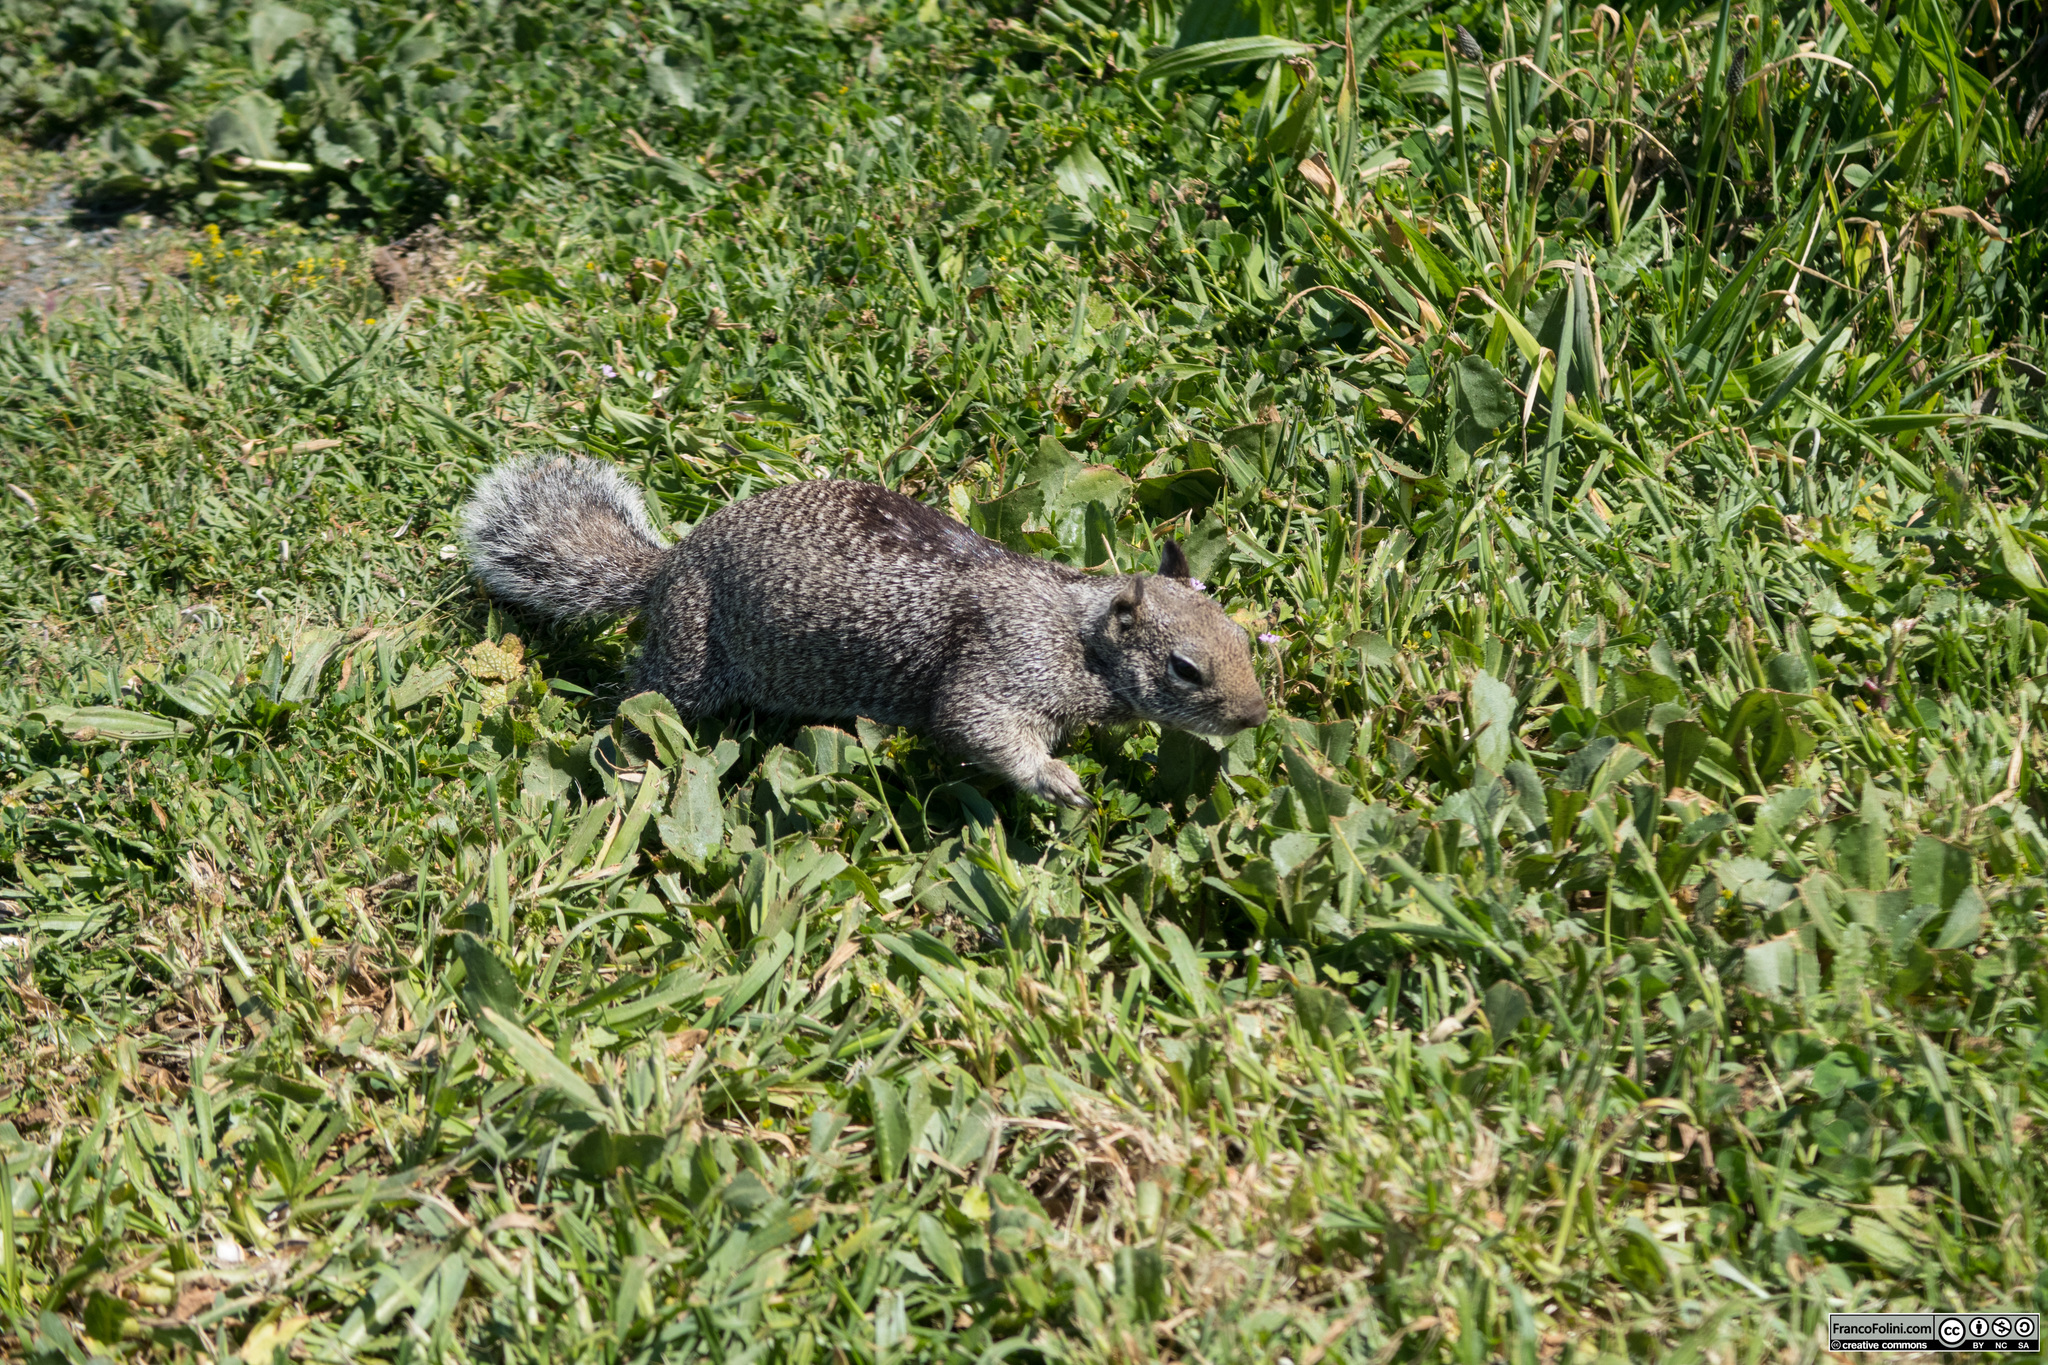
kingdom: Animalia
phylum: Chordata
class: Mammalia
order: Rodentia
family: Sciuridae
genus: Otospermophilus
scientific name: Otospermophilus beecheyi
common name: California ground squirrel
